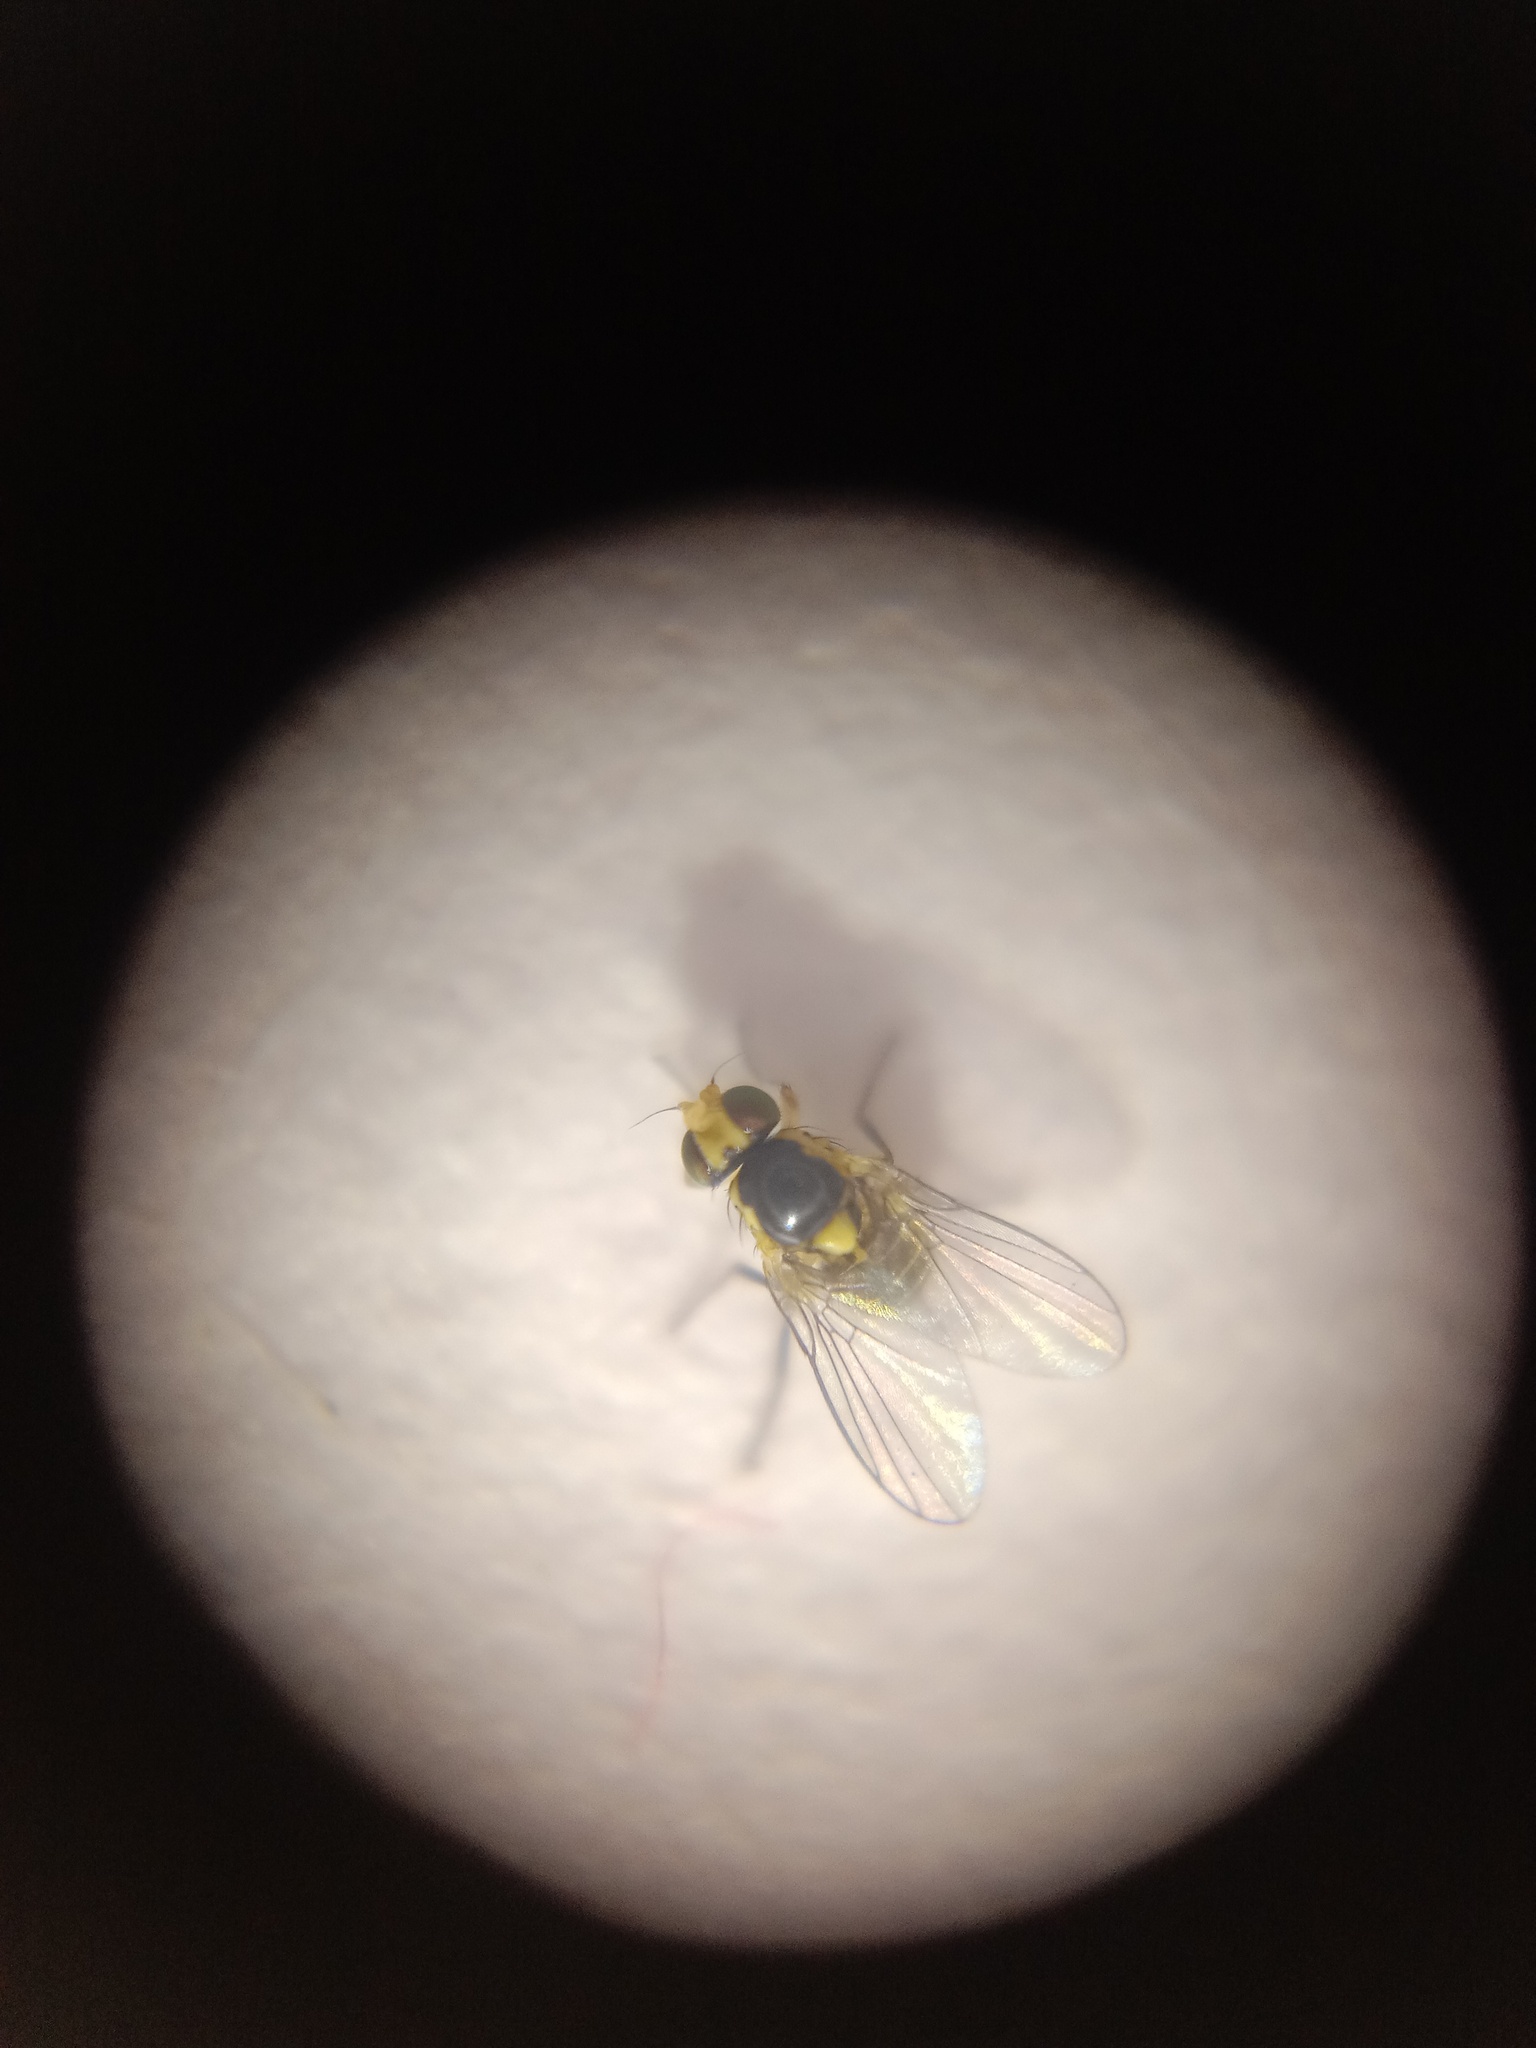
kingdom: Animalia
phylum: Arthropoda
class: Insecta
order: Diptera
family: Agromyzidae
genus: Liriomyza
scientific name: Liriomyza bryoniae
